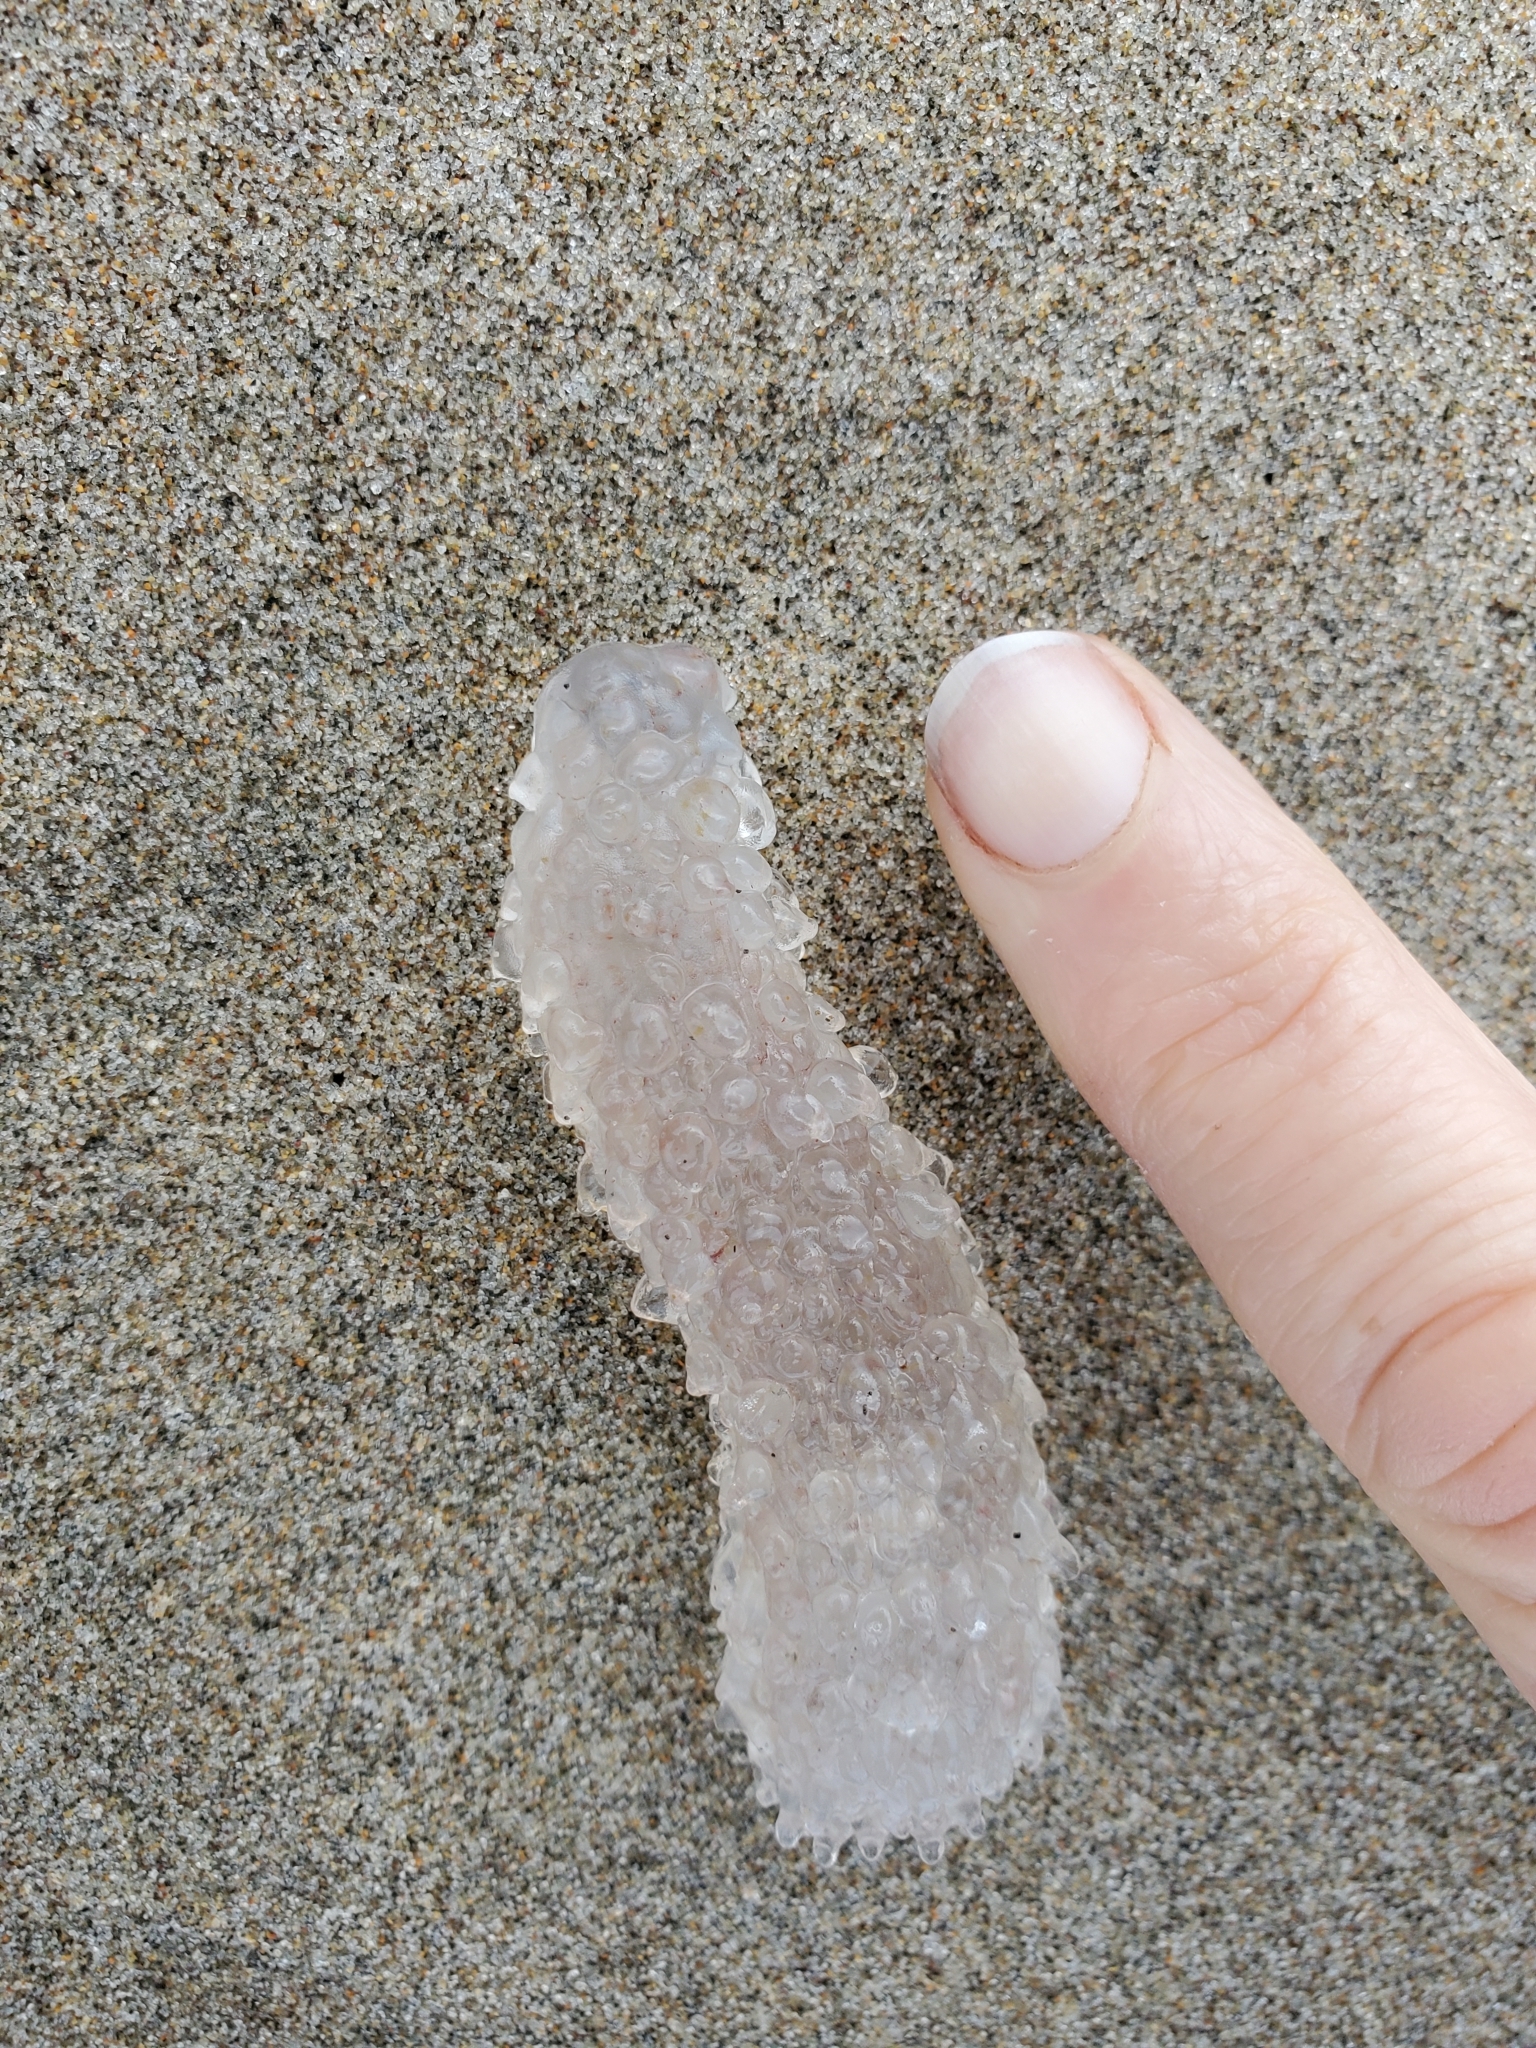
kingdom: Animalia
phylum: Chordata
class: Thaliacea
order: Pyrosomatida
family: Pyrosomatidae
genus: Pyrosoma
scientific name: Pyrosoma atlanticum
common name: Atlantic pyrosomes
